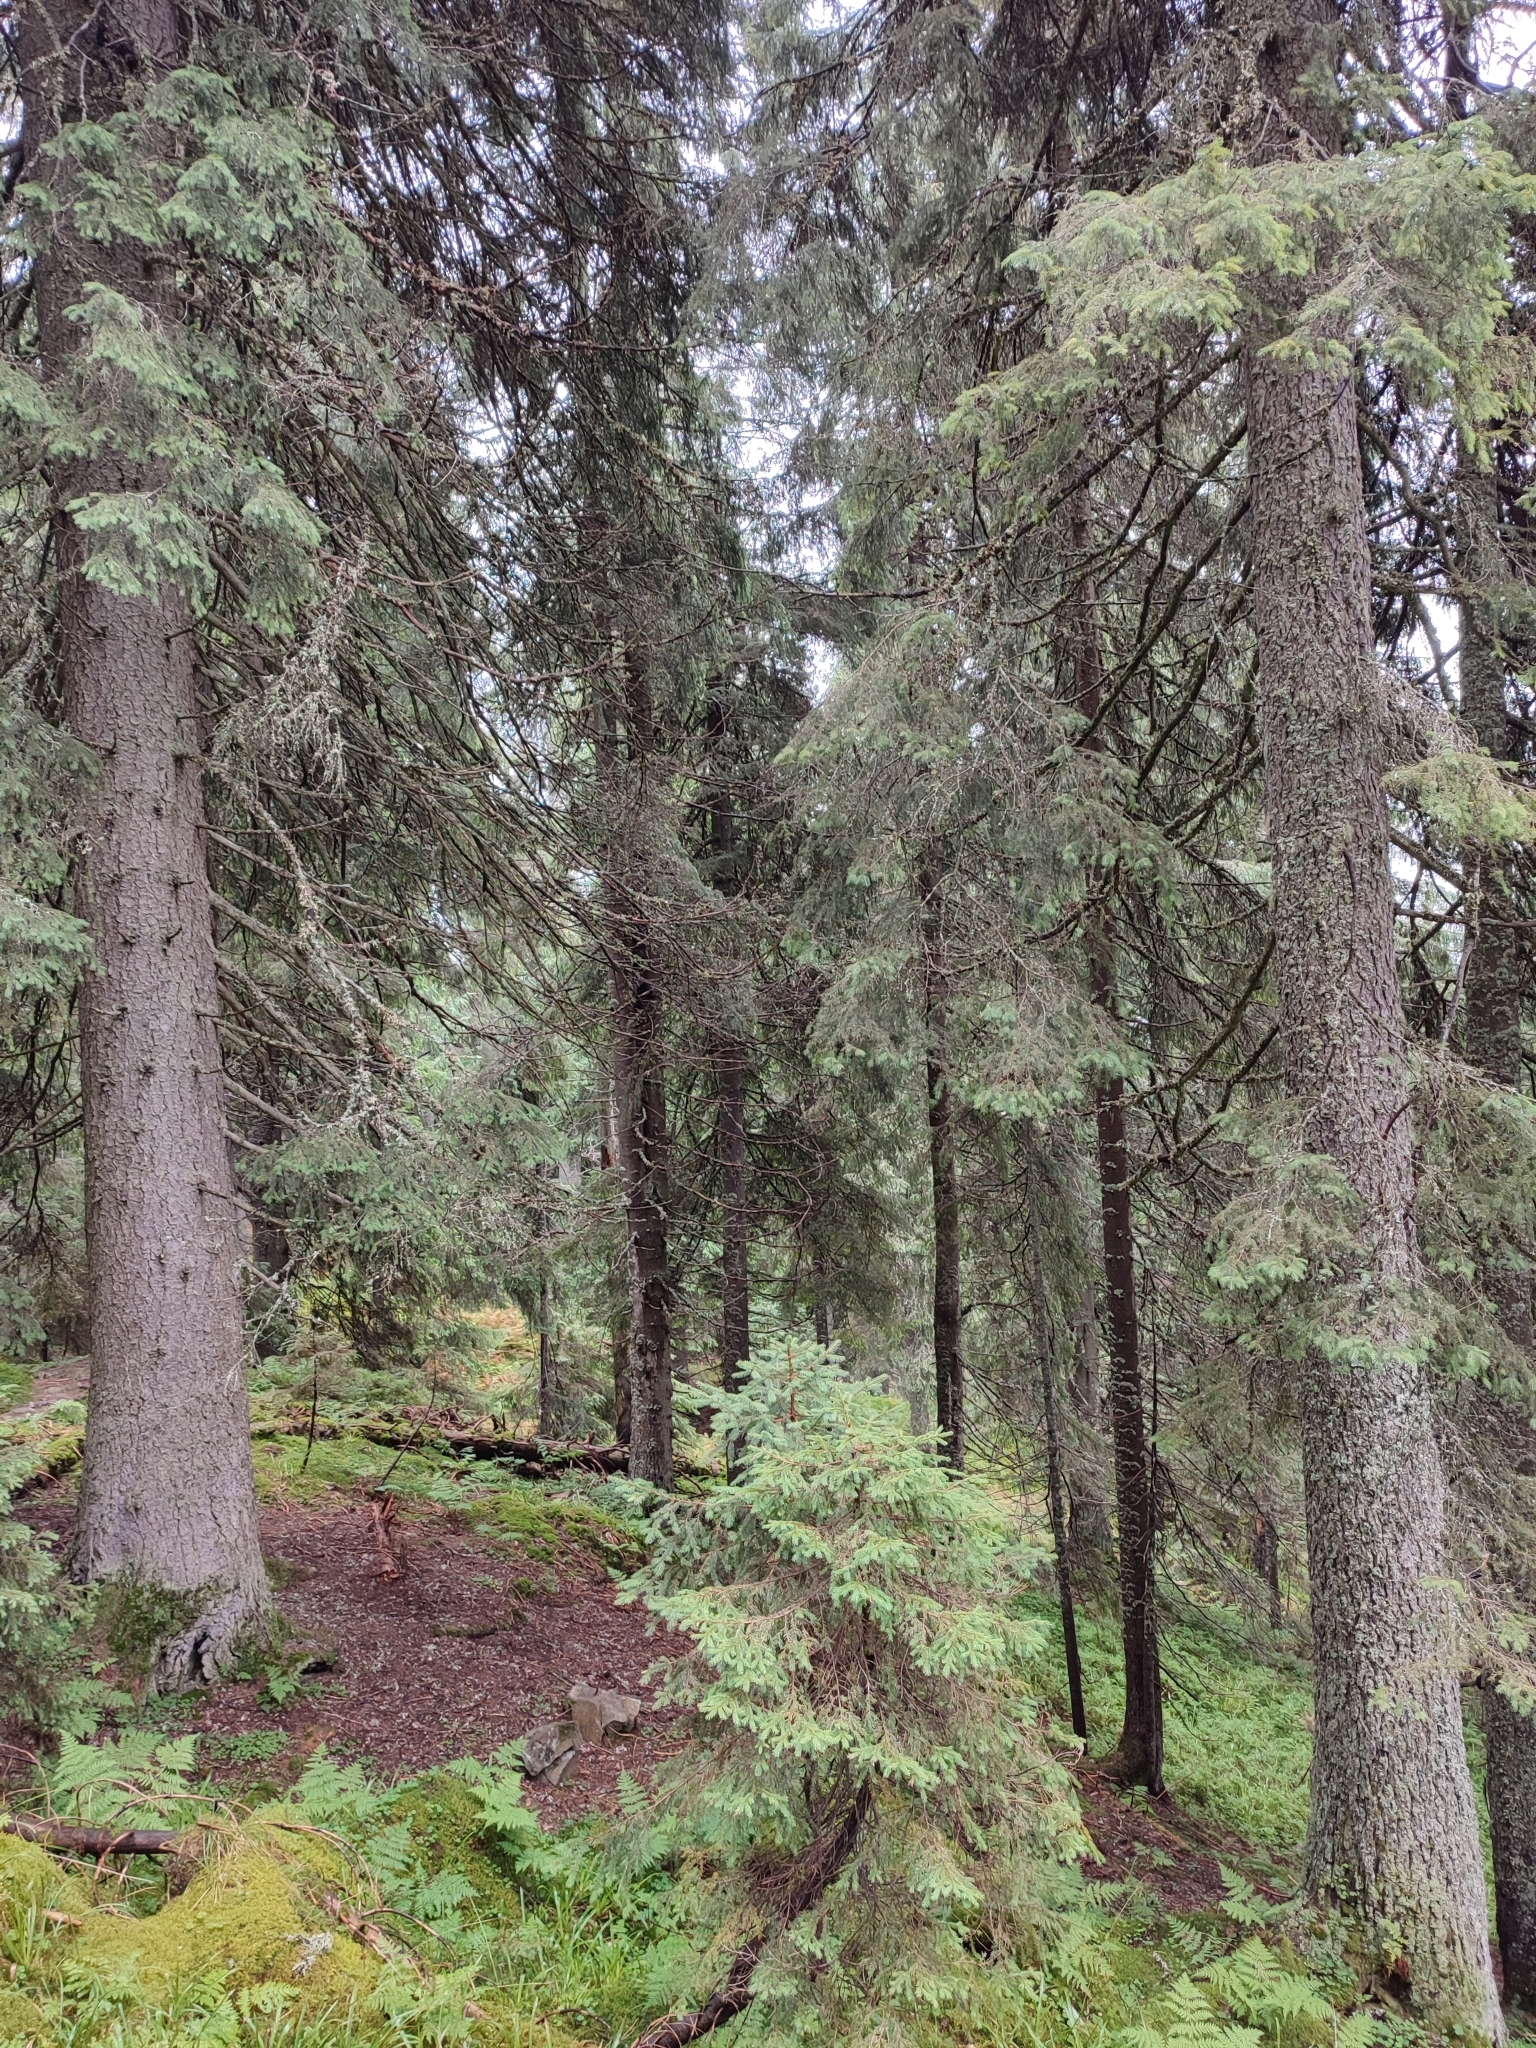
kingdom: Plantae
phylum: Tracheophyta
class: Pinopsida
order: Pinales
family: Pinaceae
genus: Picea
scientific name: Picea abies
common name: Norway spruce
